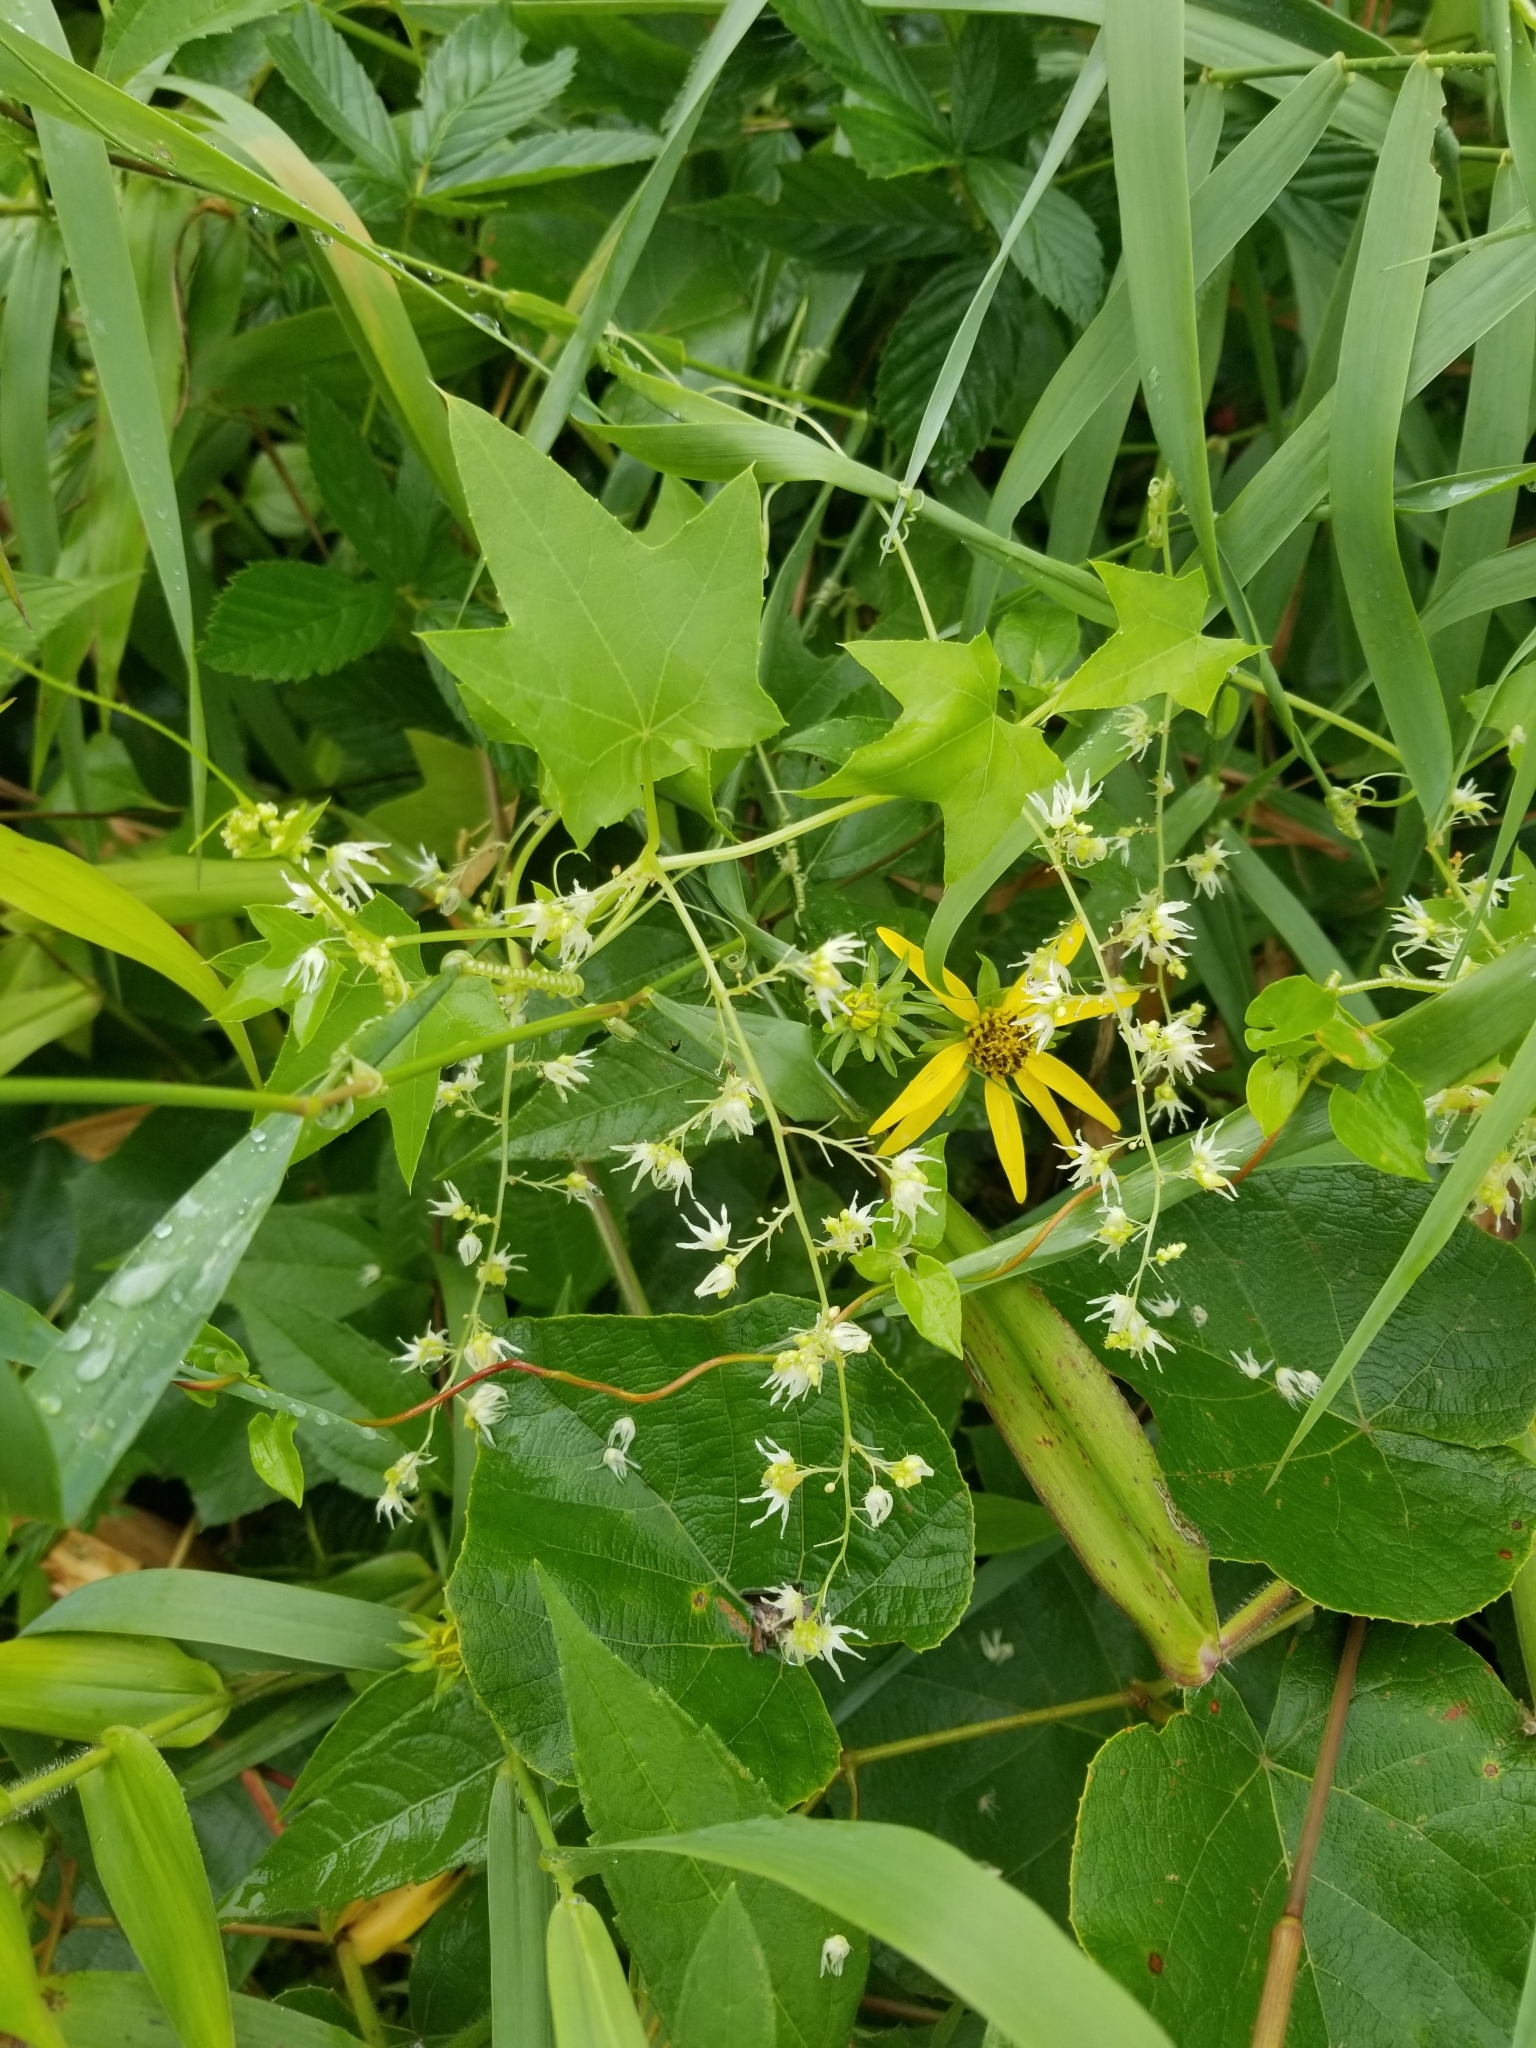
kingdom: Plantae
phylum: Tracheophyta
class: Magnoliopsida
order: Cucurbitales
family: Cucurbitaceae
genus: Echinocystis
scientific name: Echinocystis lobata
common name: Wild cucumber
